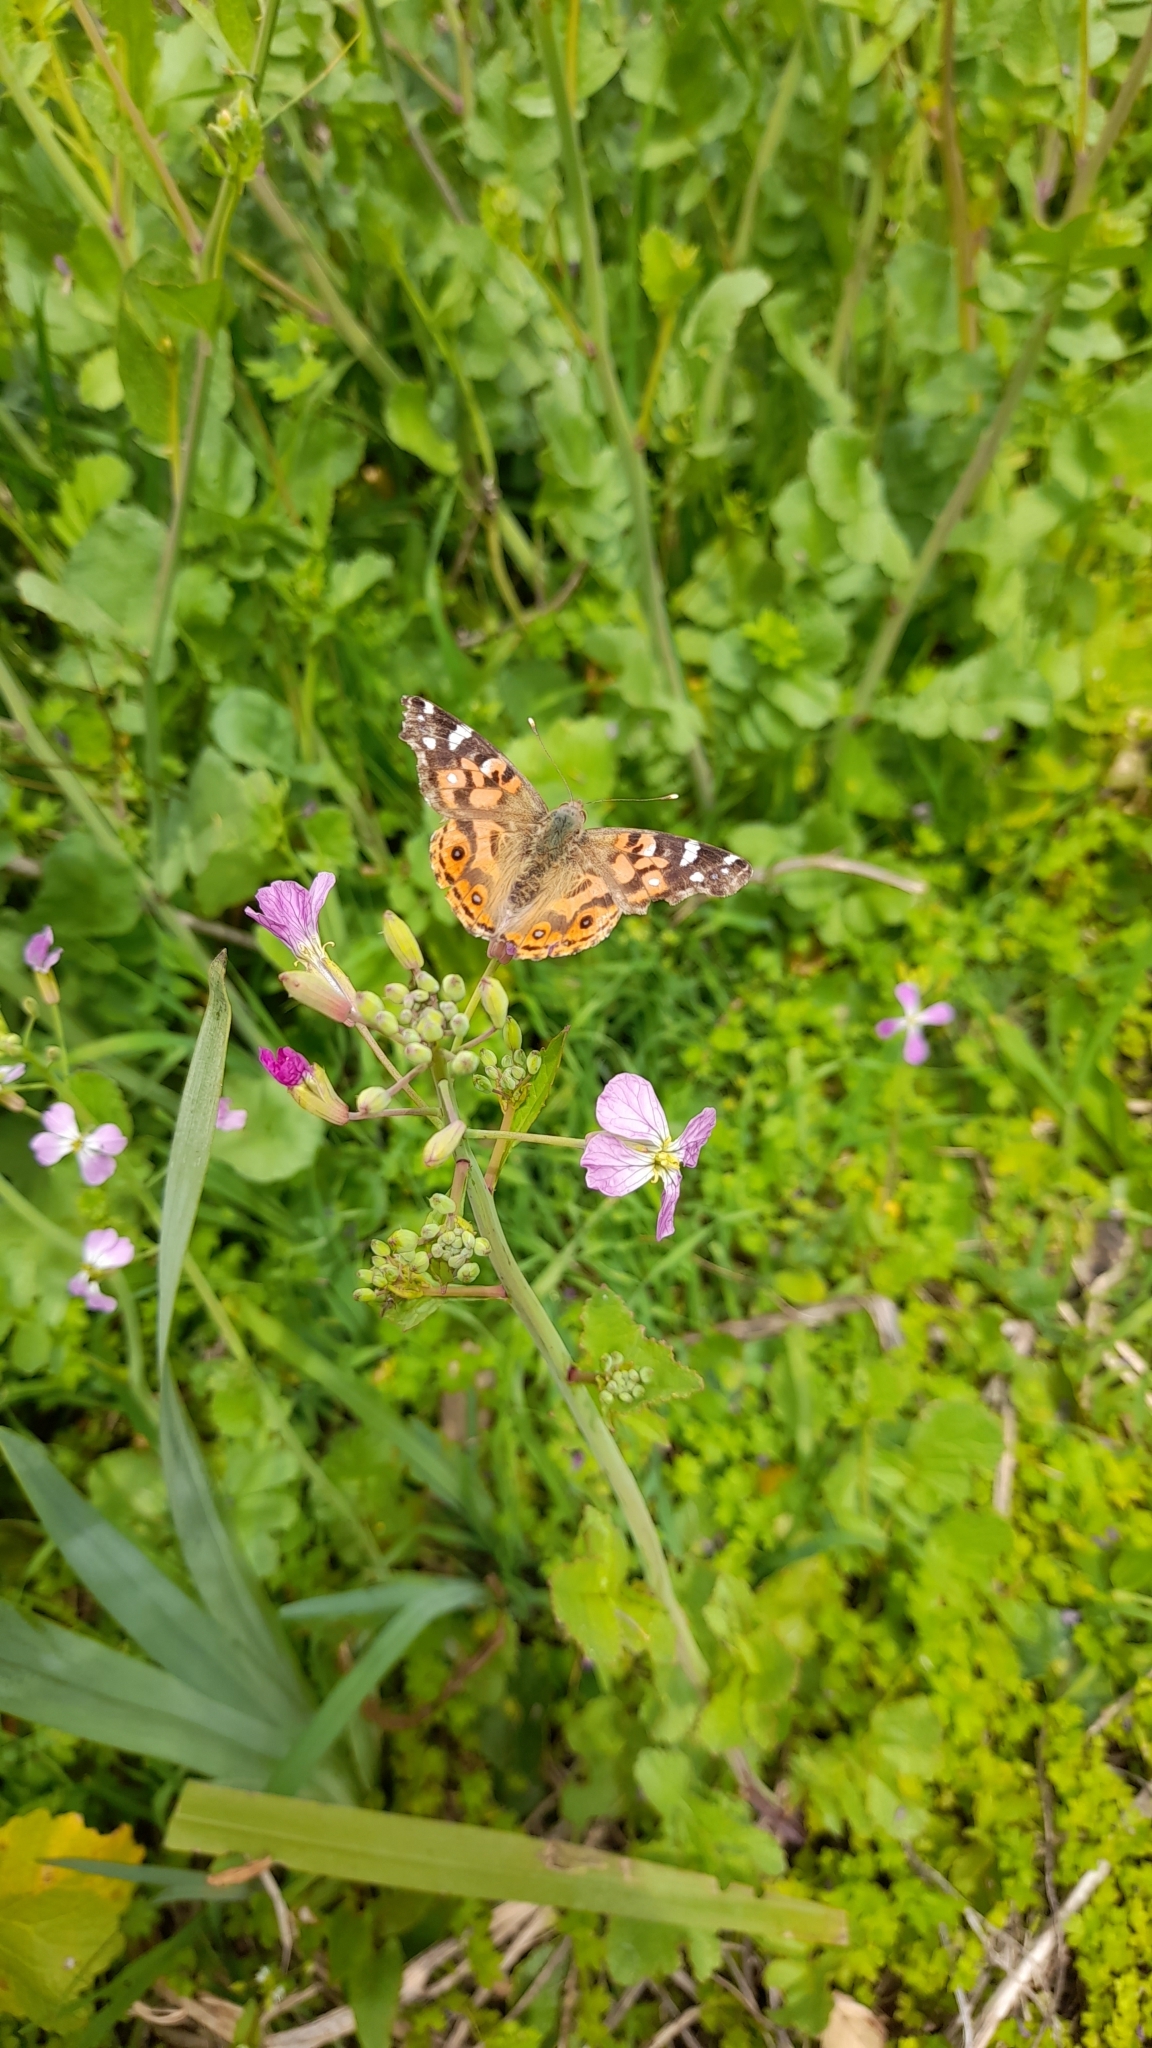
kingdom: Animalia
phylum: Arthropoda
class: Insecta
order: Lepidoptera
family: Nymphalidae
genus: Vanessa
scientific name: Vanessa braziliensis
